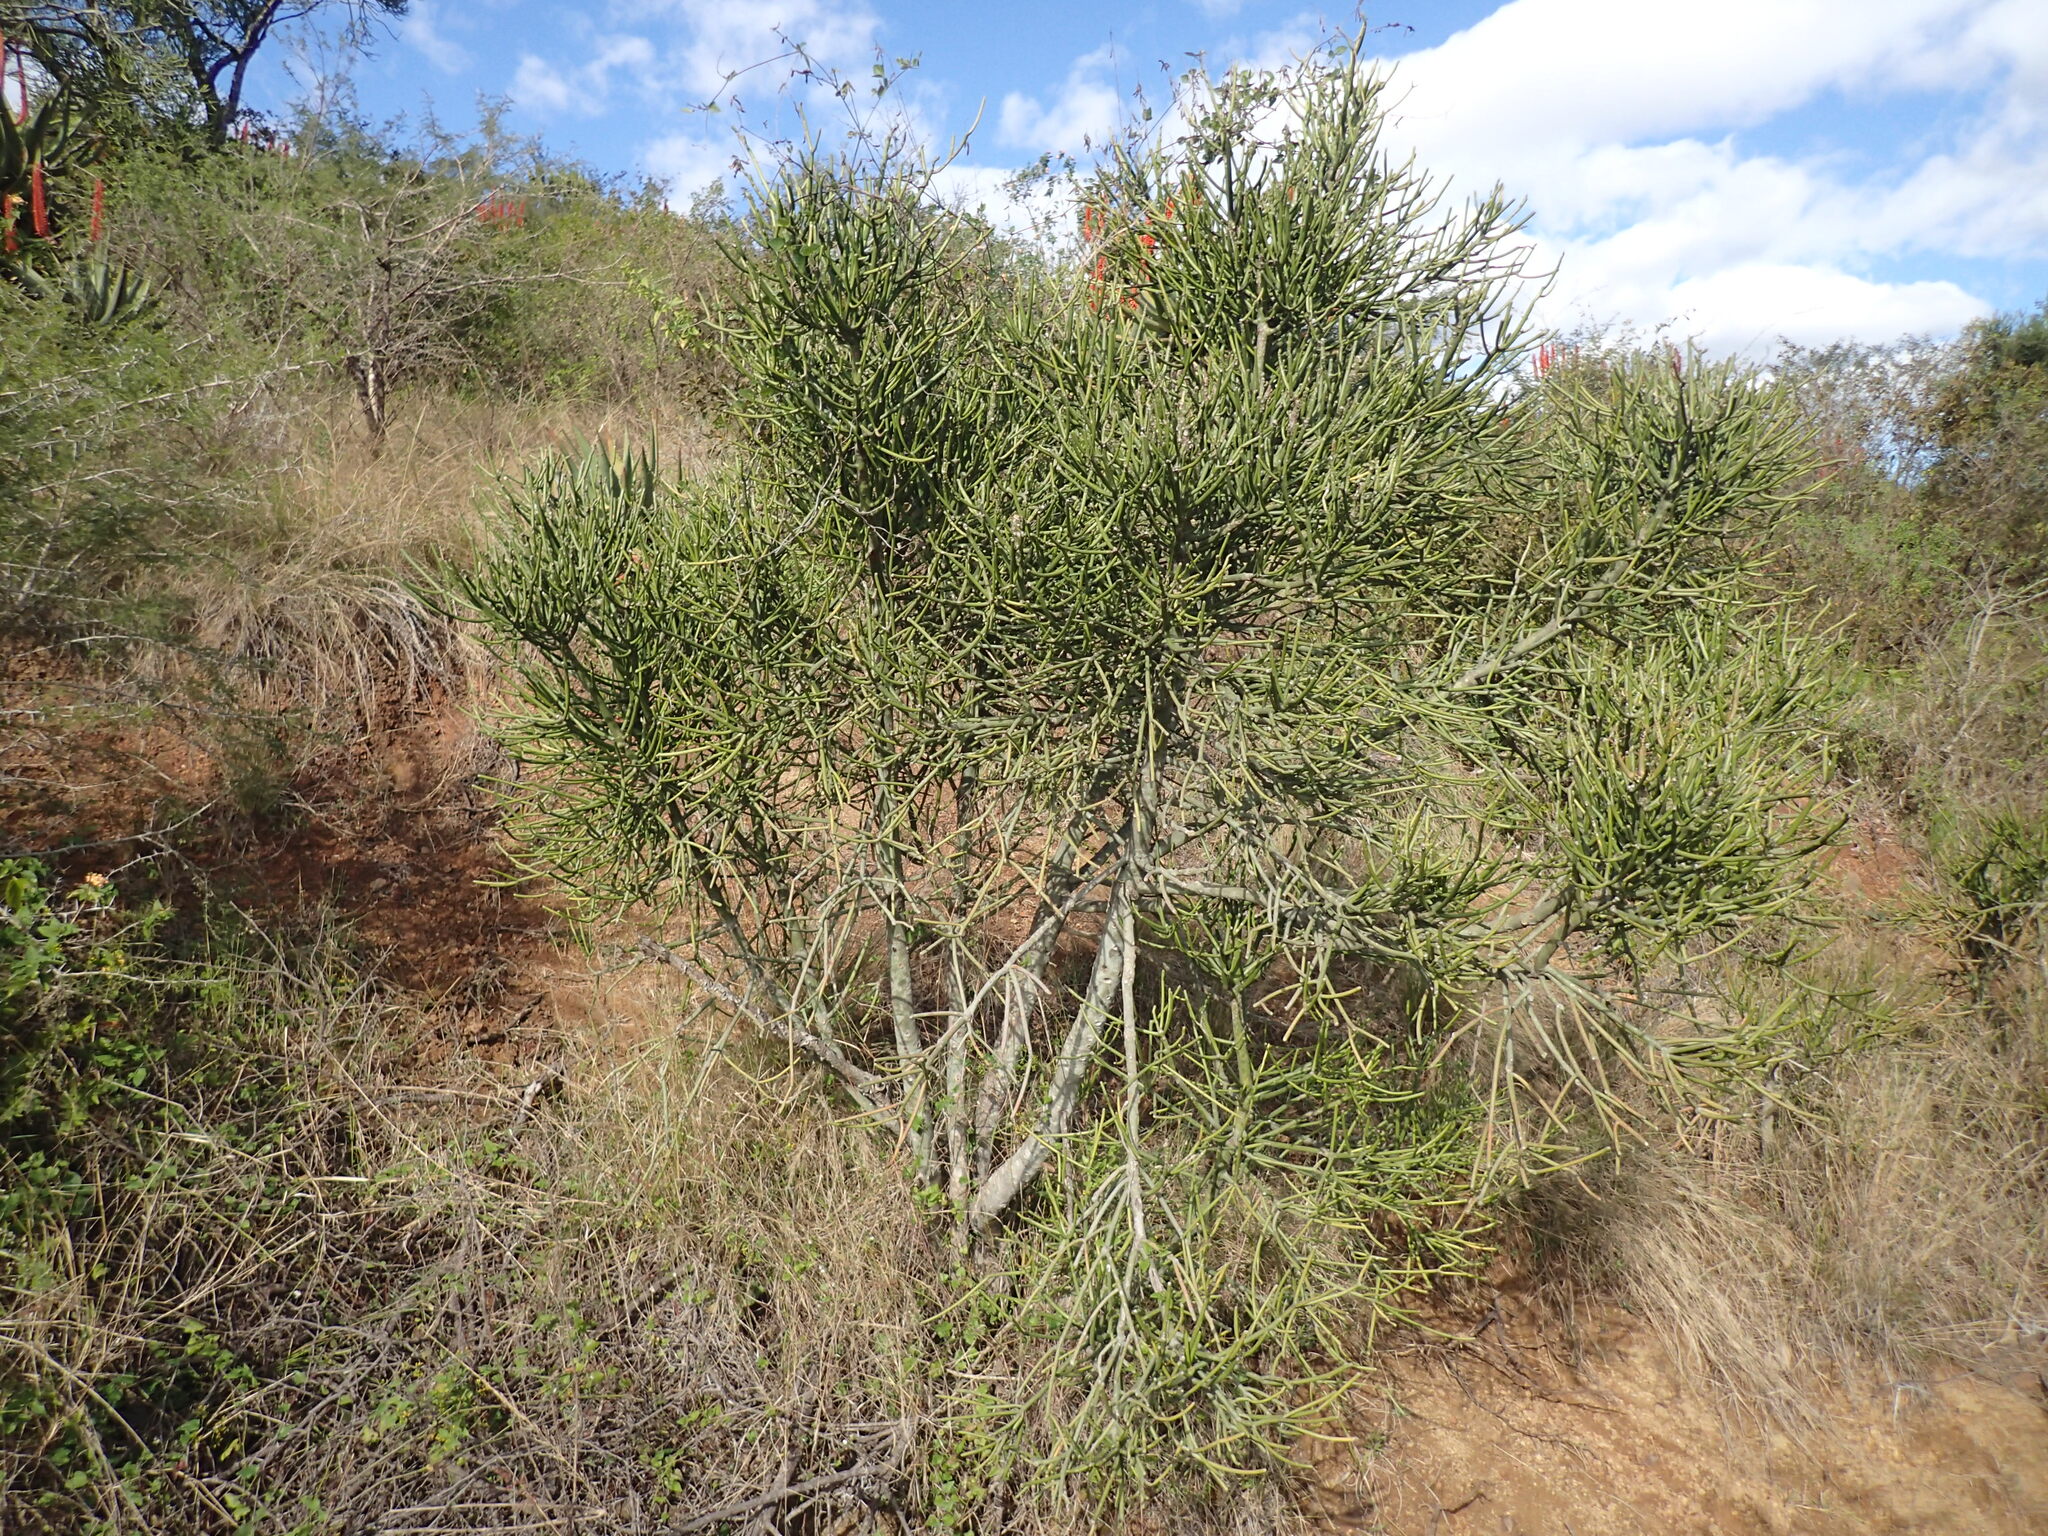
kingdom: Plantae
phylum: Tracheophyta
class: Magnoliopsida
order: Malpighiales
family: Euphorbiaceae
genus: Euphorbia
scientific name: Euphorbia tirucalli
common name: Indiantree spurge
